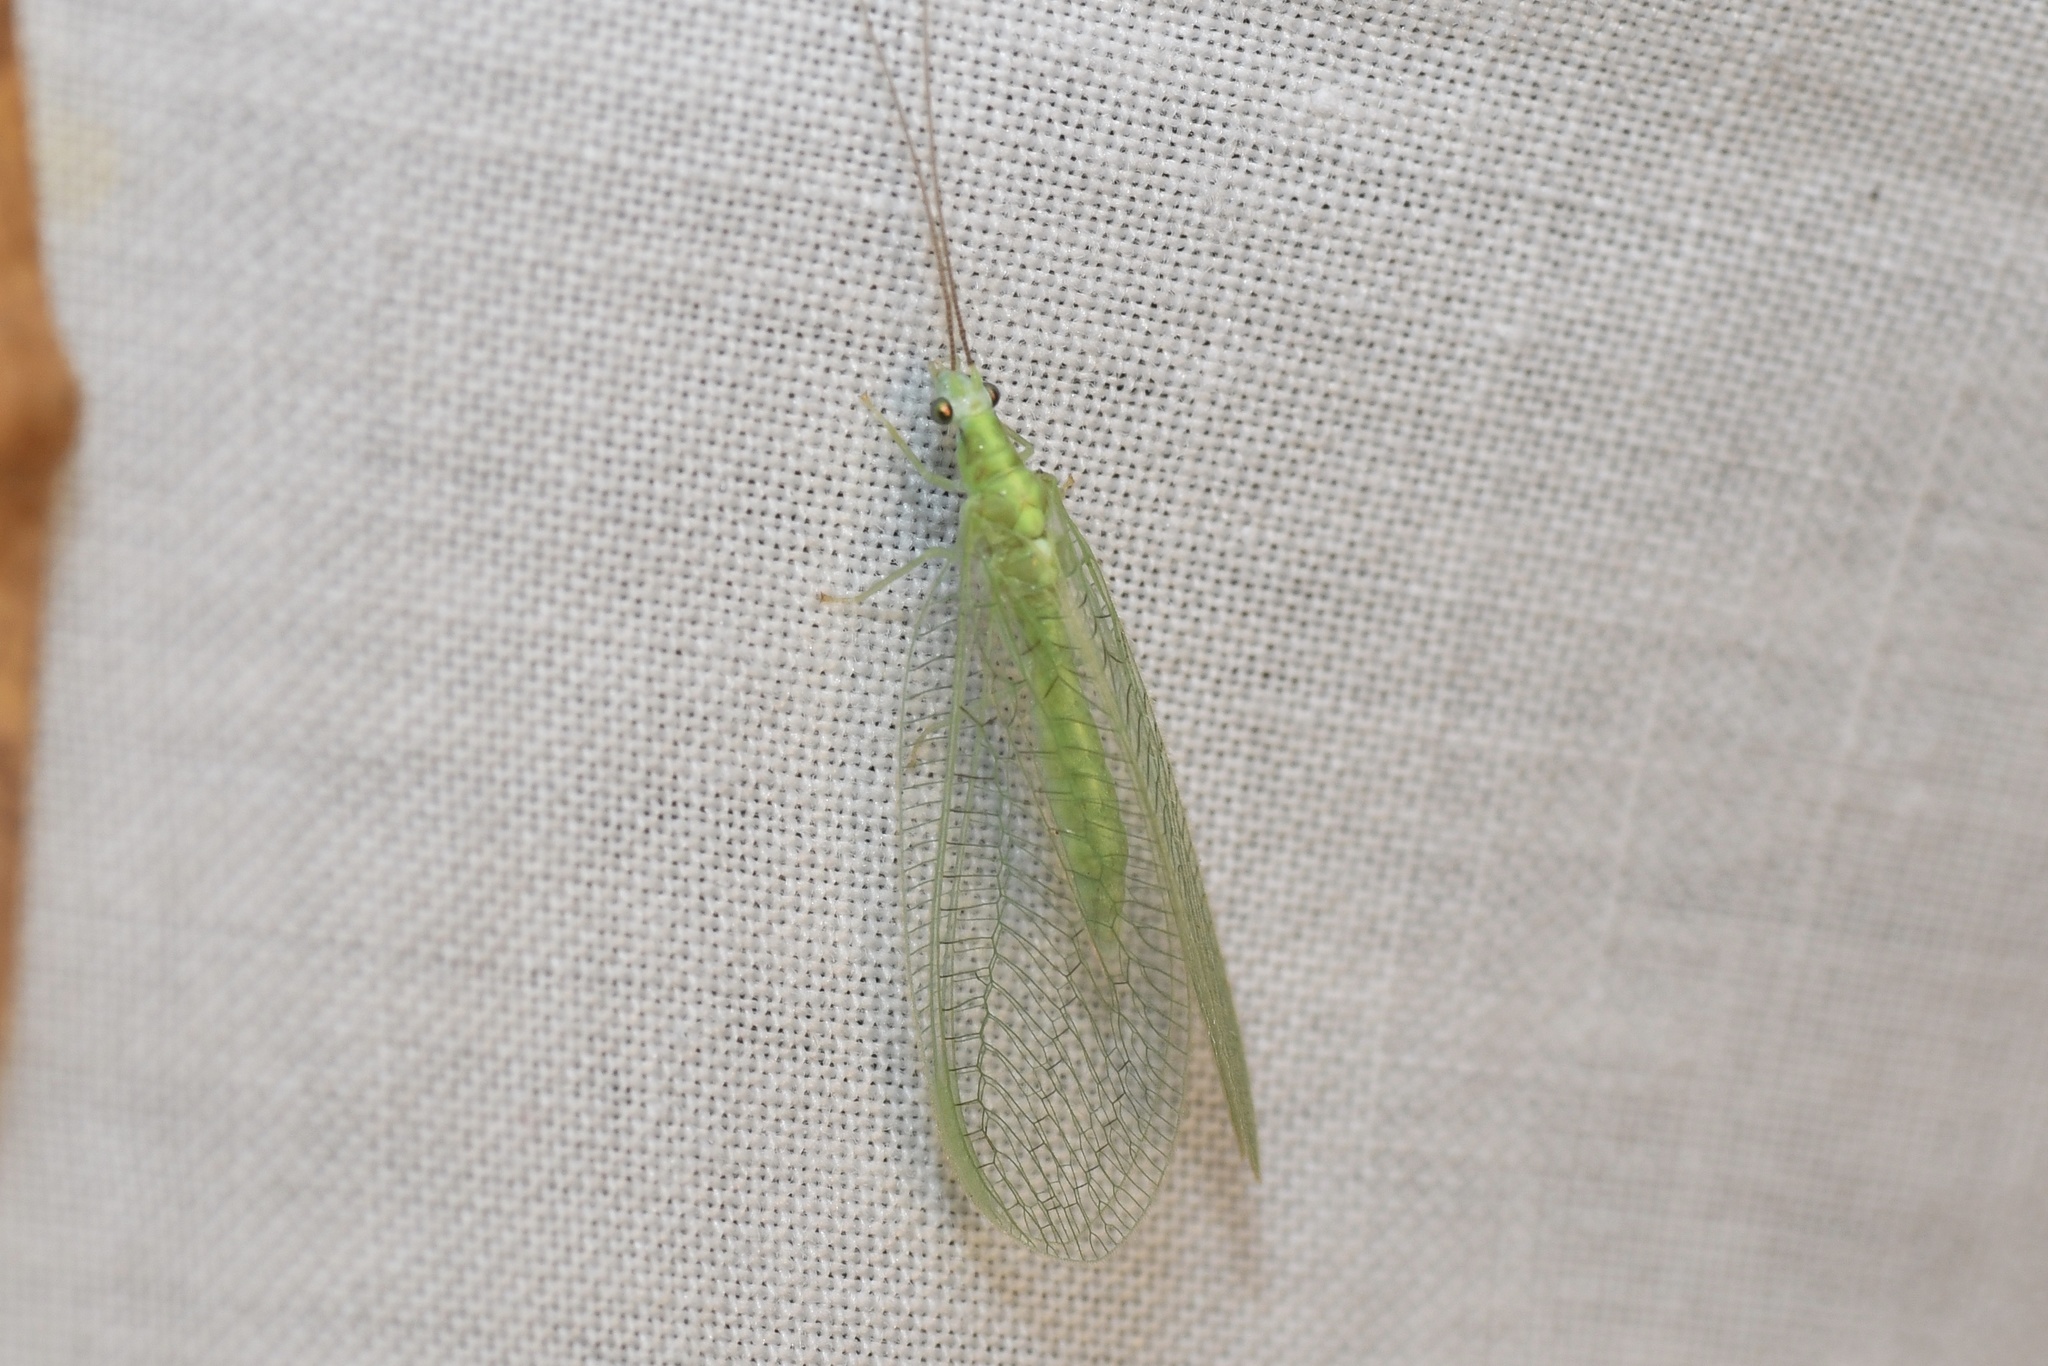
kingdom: Animalia
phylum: Arthropoda
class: Insecta
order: Neuroptera
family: Chrysopidae
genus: Chrysopa
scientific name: Chrysopa nigricornis
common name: Black-horned green lacewing
